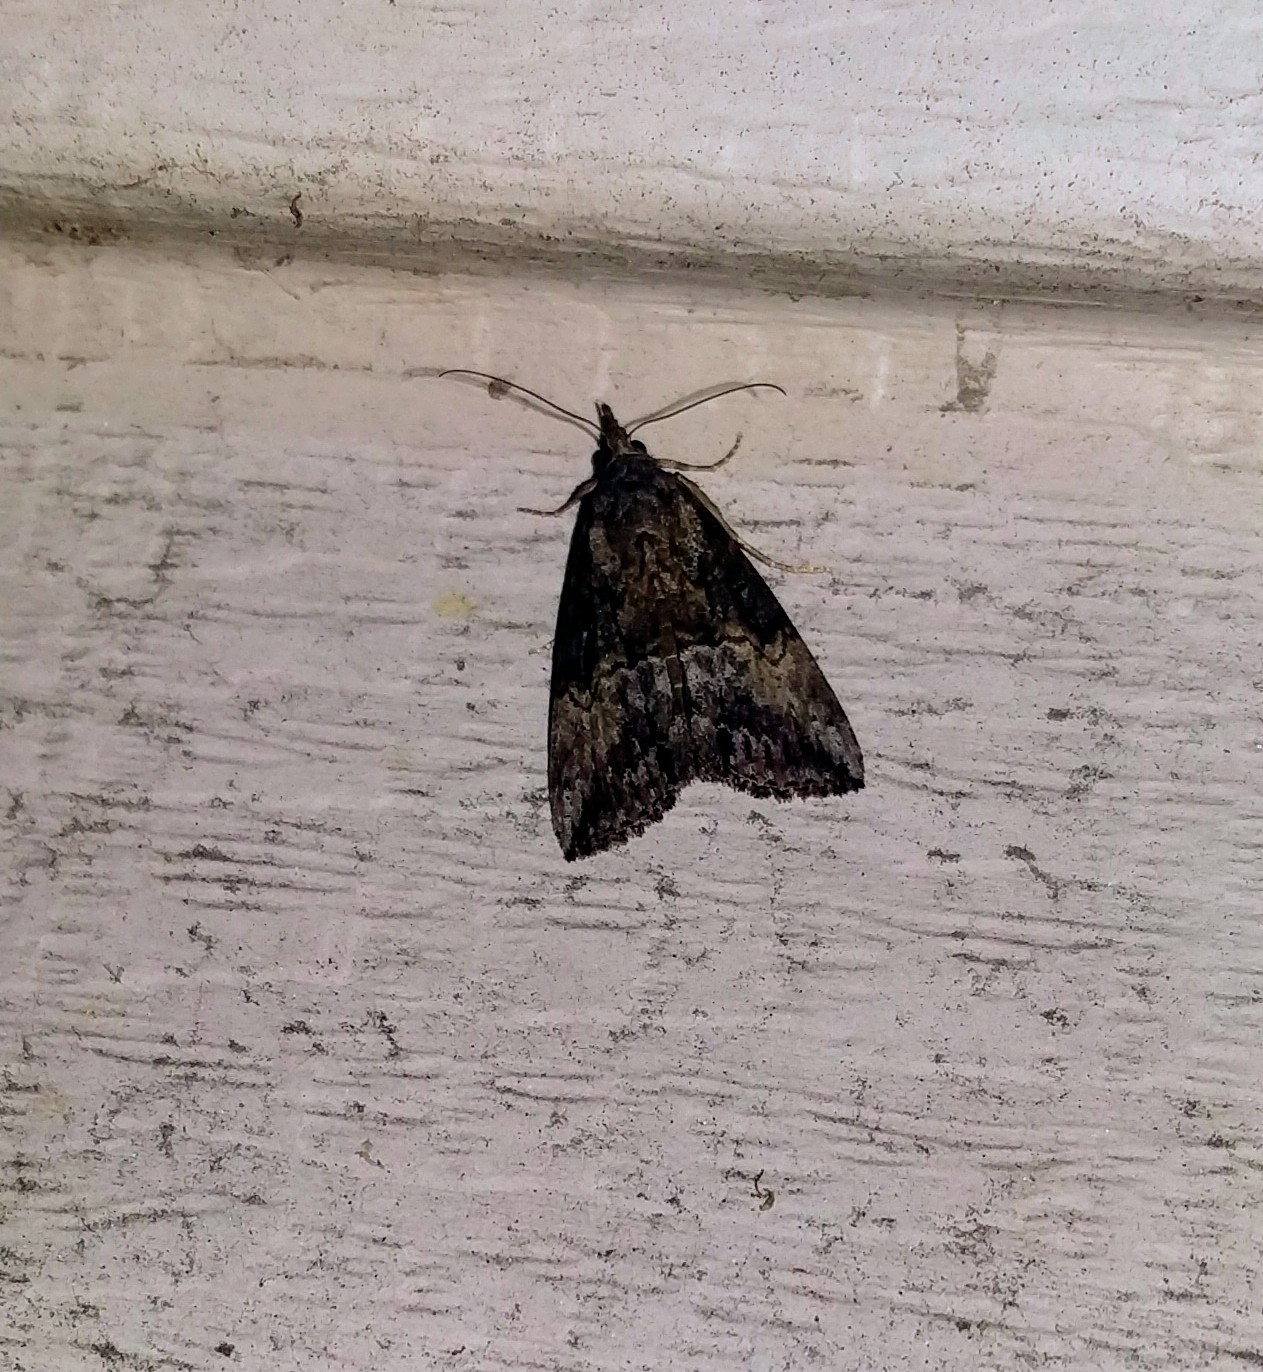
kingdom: Animalia
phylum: Arthropoda
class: Insecta
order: Lepidoptera
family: Erebidae
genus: Hypena
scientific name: Hypena scabra
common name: Green cloverworm
